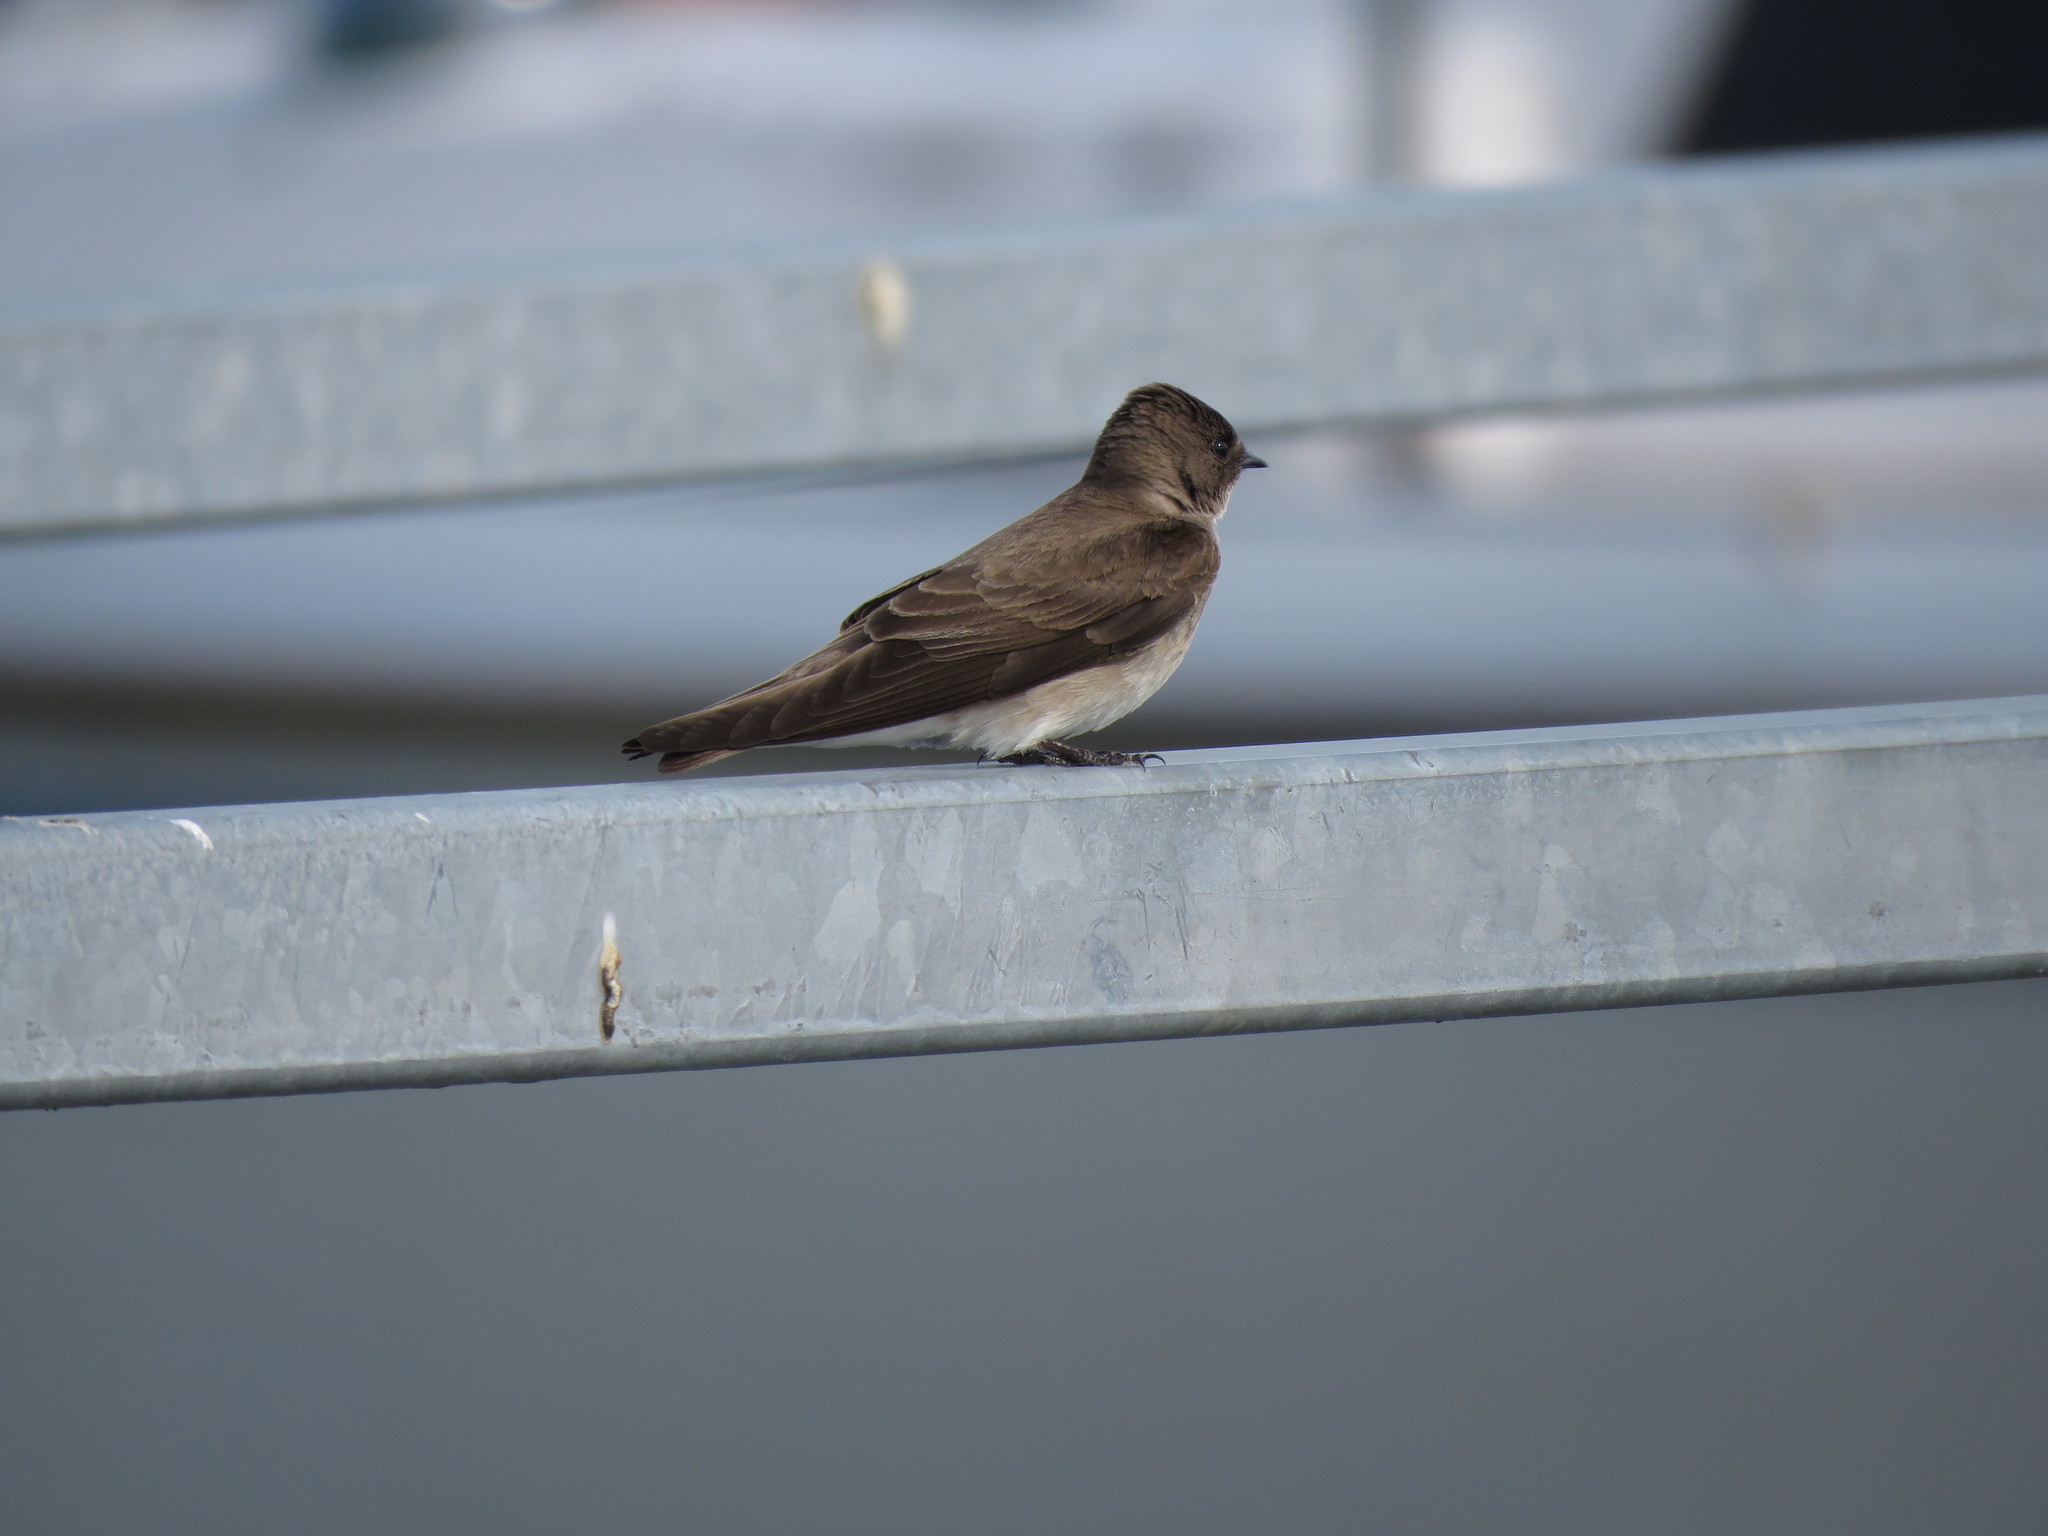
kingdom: Animalia
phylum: Chordata
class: Aves
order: Passeriformes
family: Hirundinidae
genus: Stelgidopteryx
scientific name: Stelgidopteryx serripennis
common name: Northern rough-winged swallow
